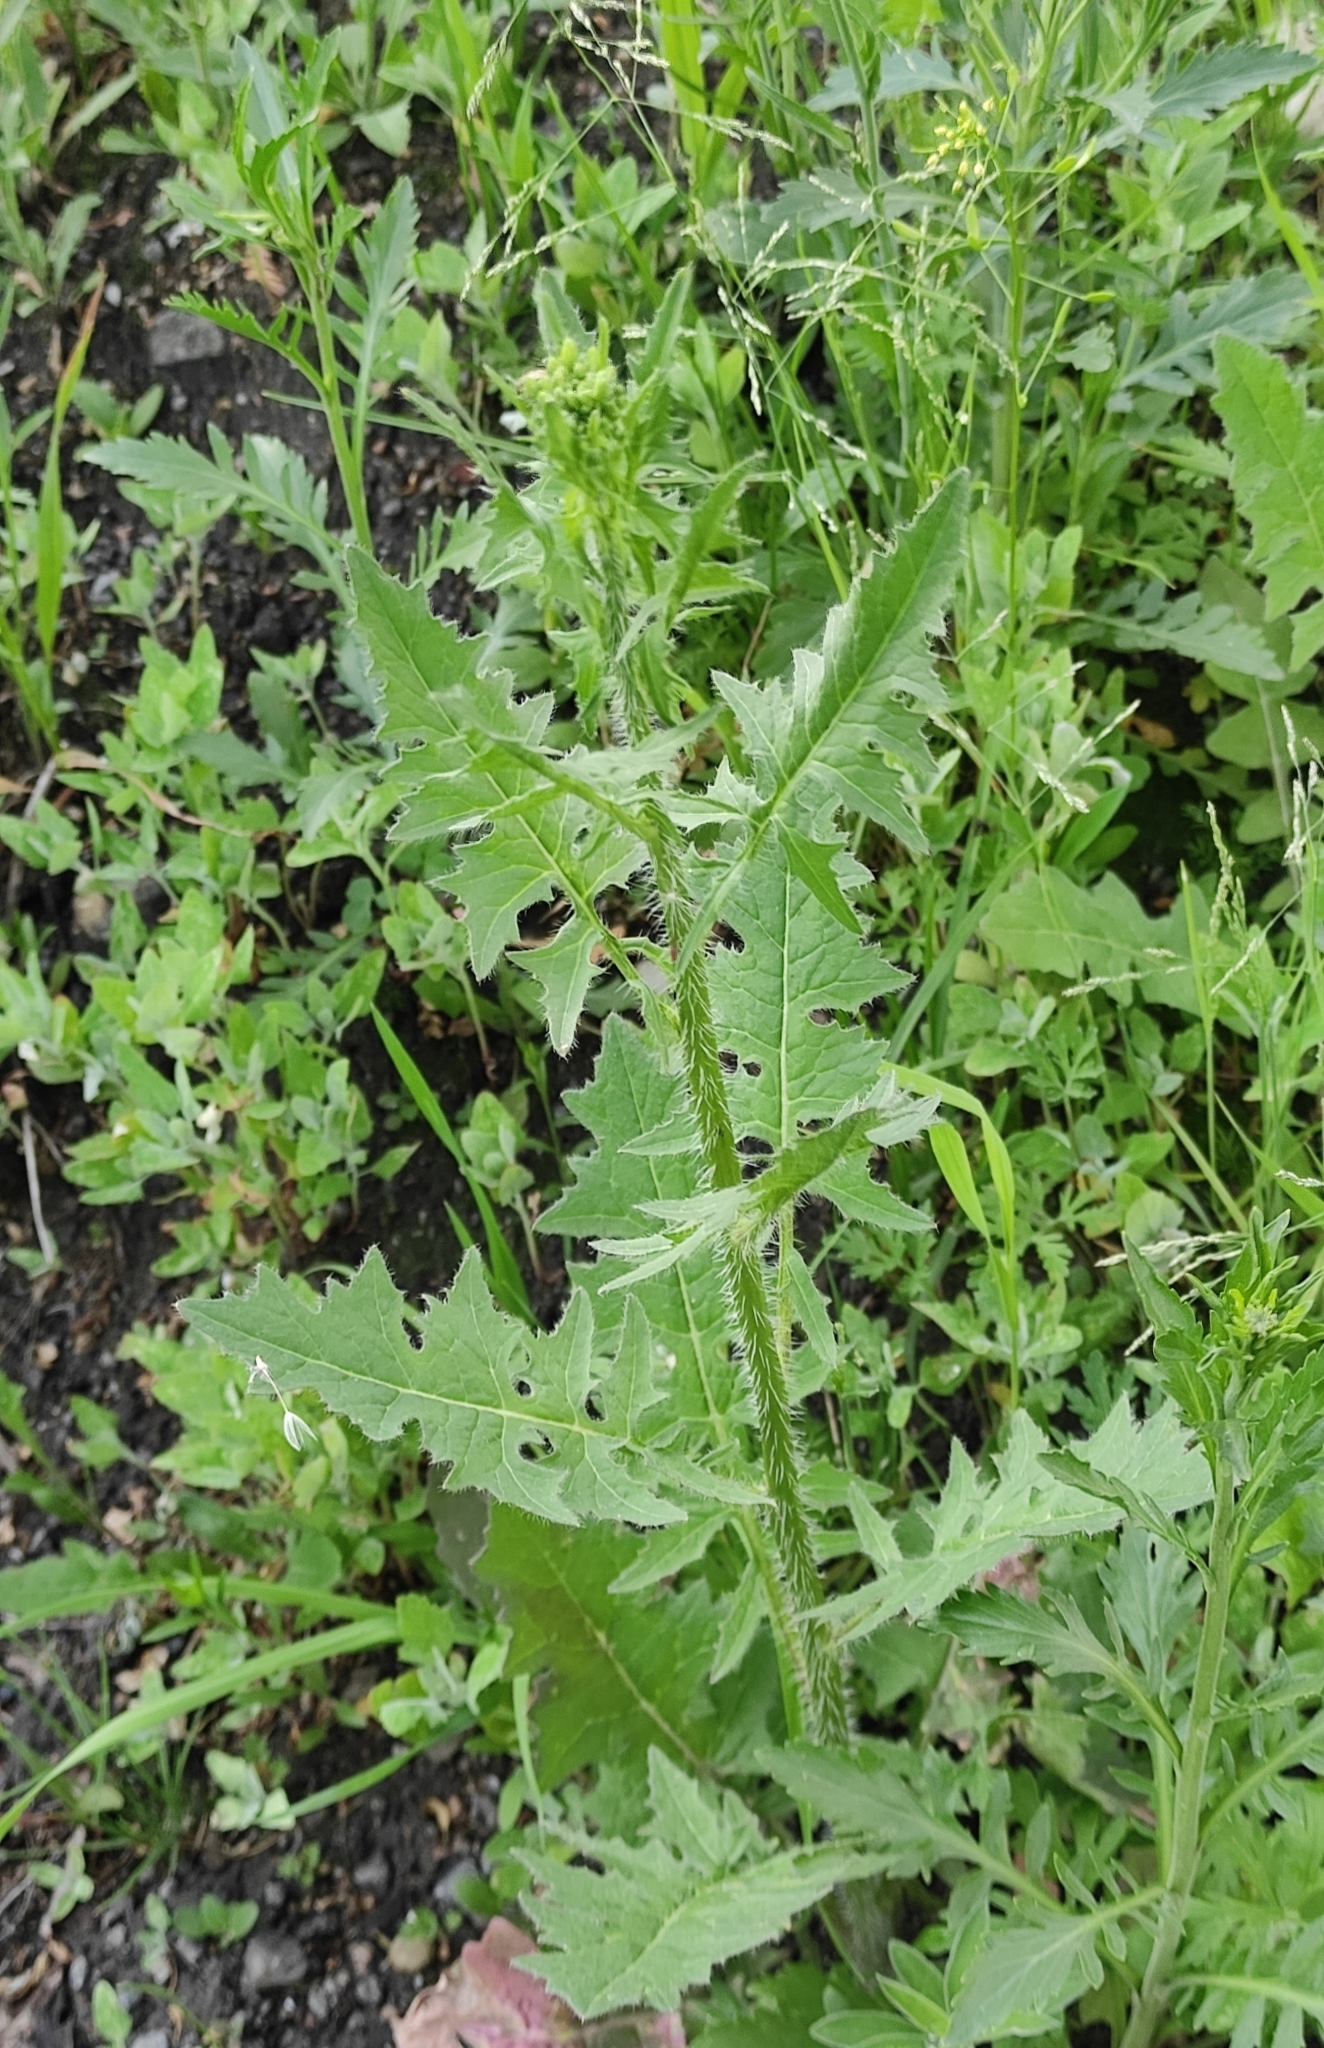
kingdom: Plantae
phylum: Tracheophyta
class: Magnoliopsida
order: Brassicales
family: Brassicaceae
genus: Sisymbrium
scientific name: Sisymbrium loeselii
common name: False london-rocket
